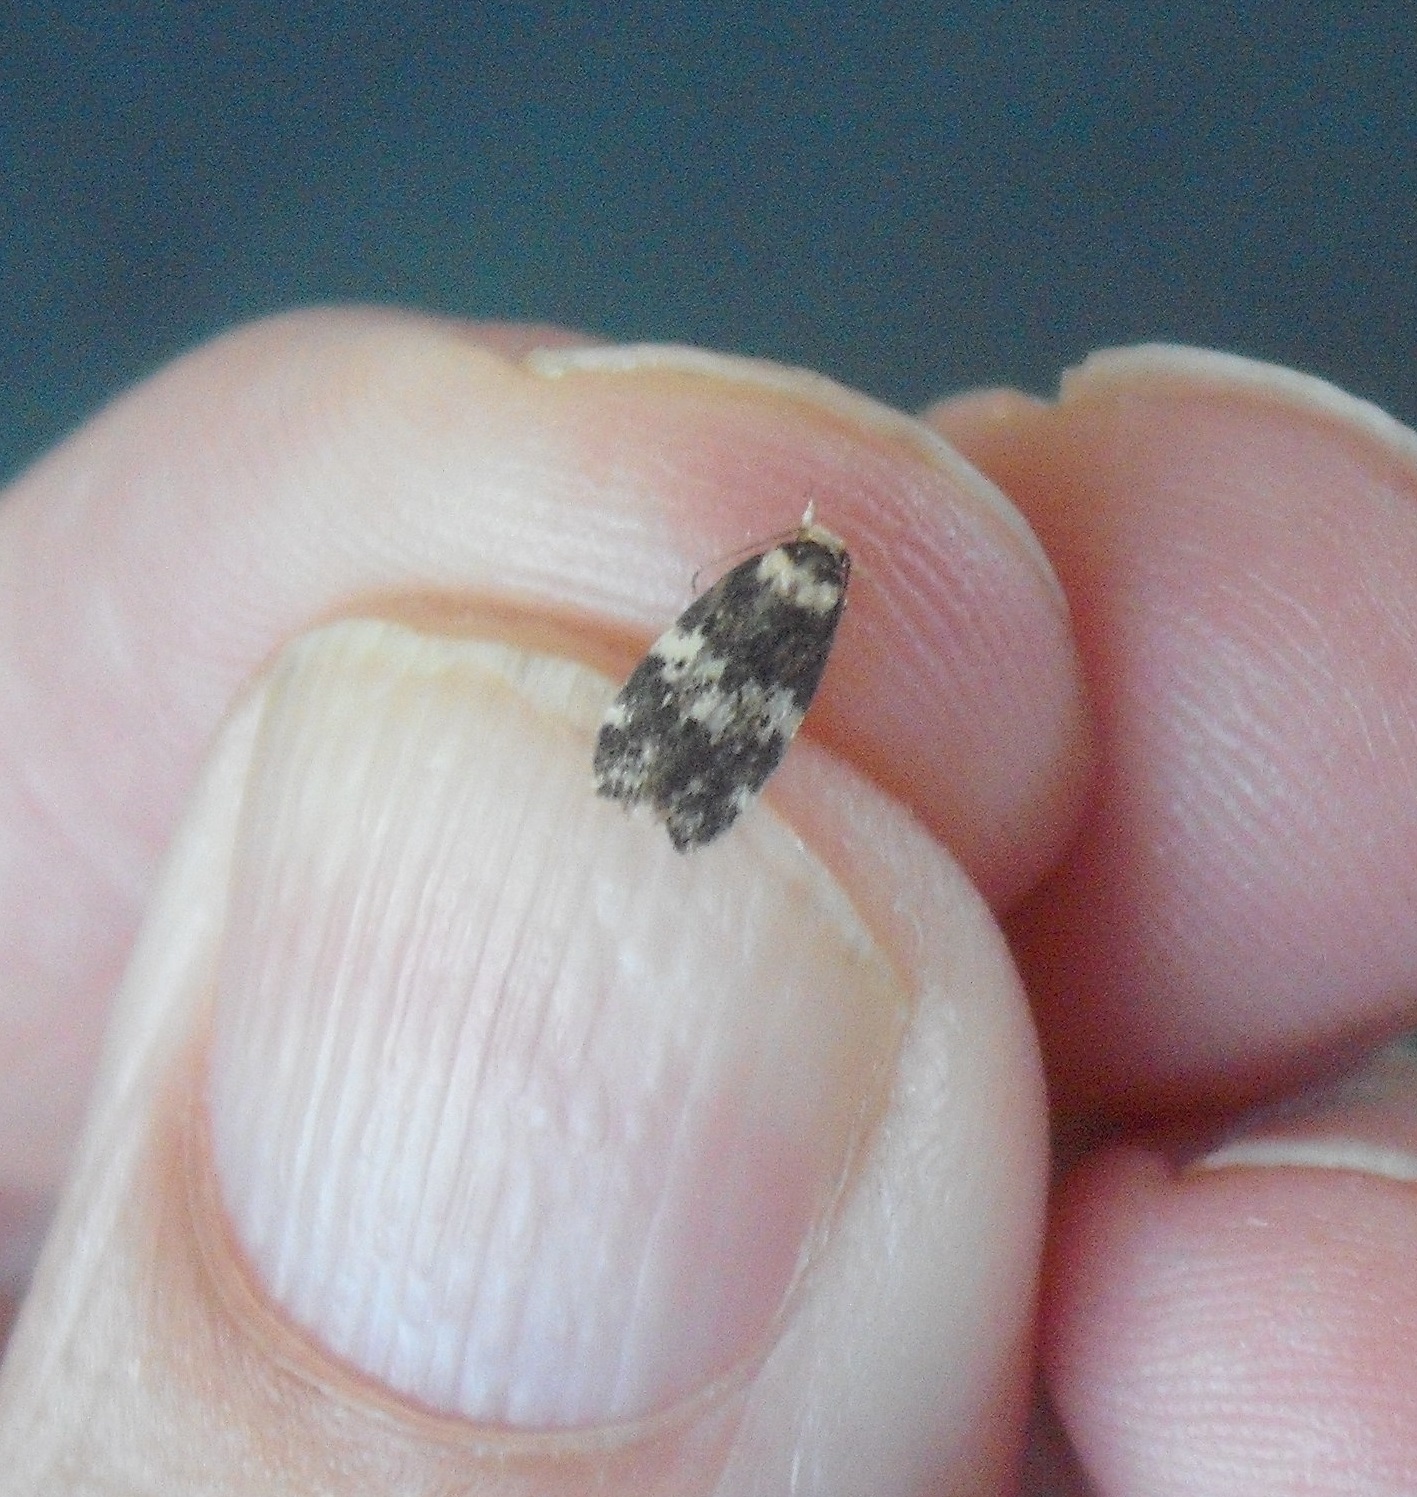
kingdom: Animalia
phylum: Arthropoda
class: Insecta
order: Lepidoptera
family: Oecophoridae
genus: Sphyrelata
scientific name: Sphyrelata amotella
